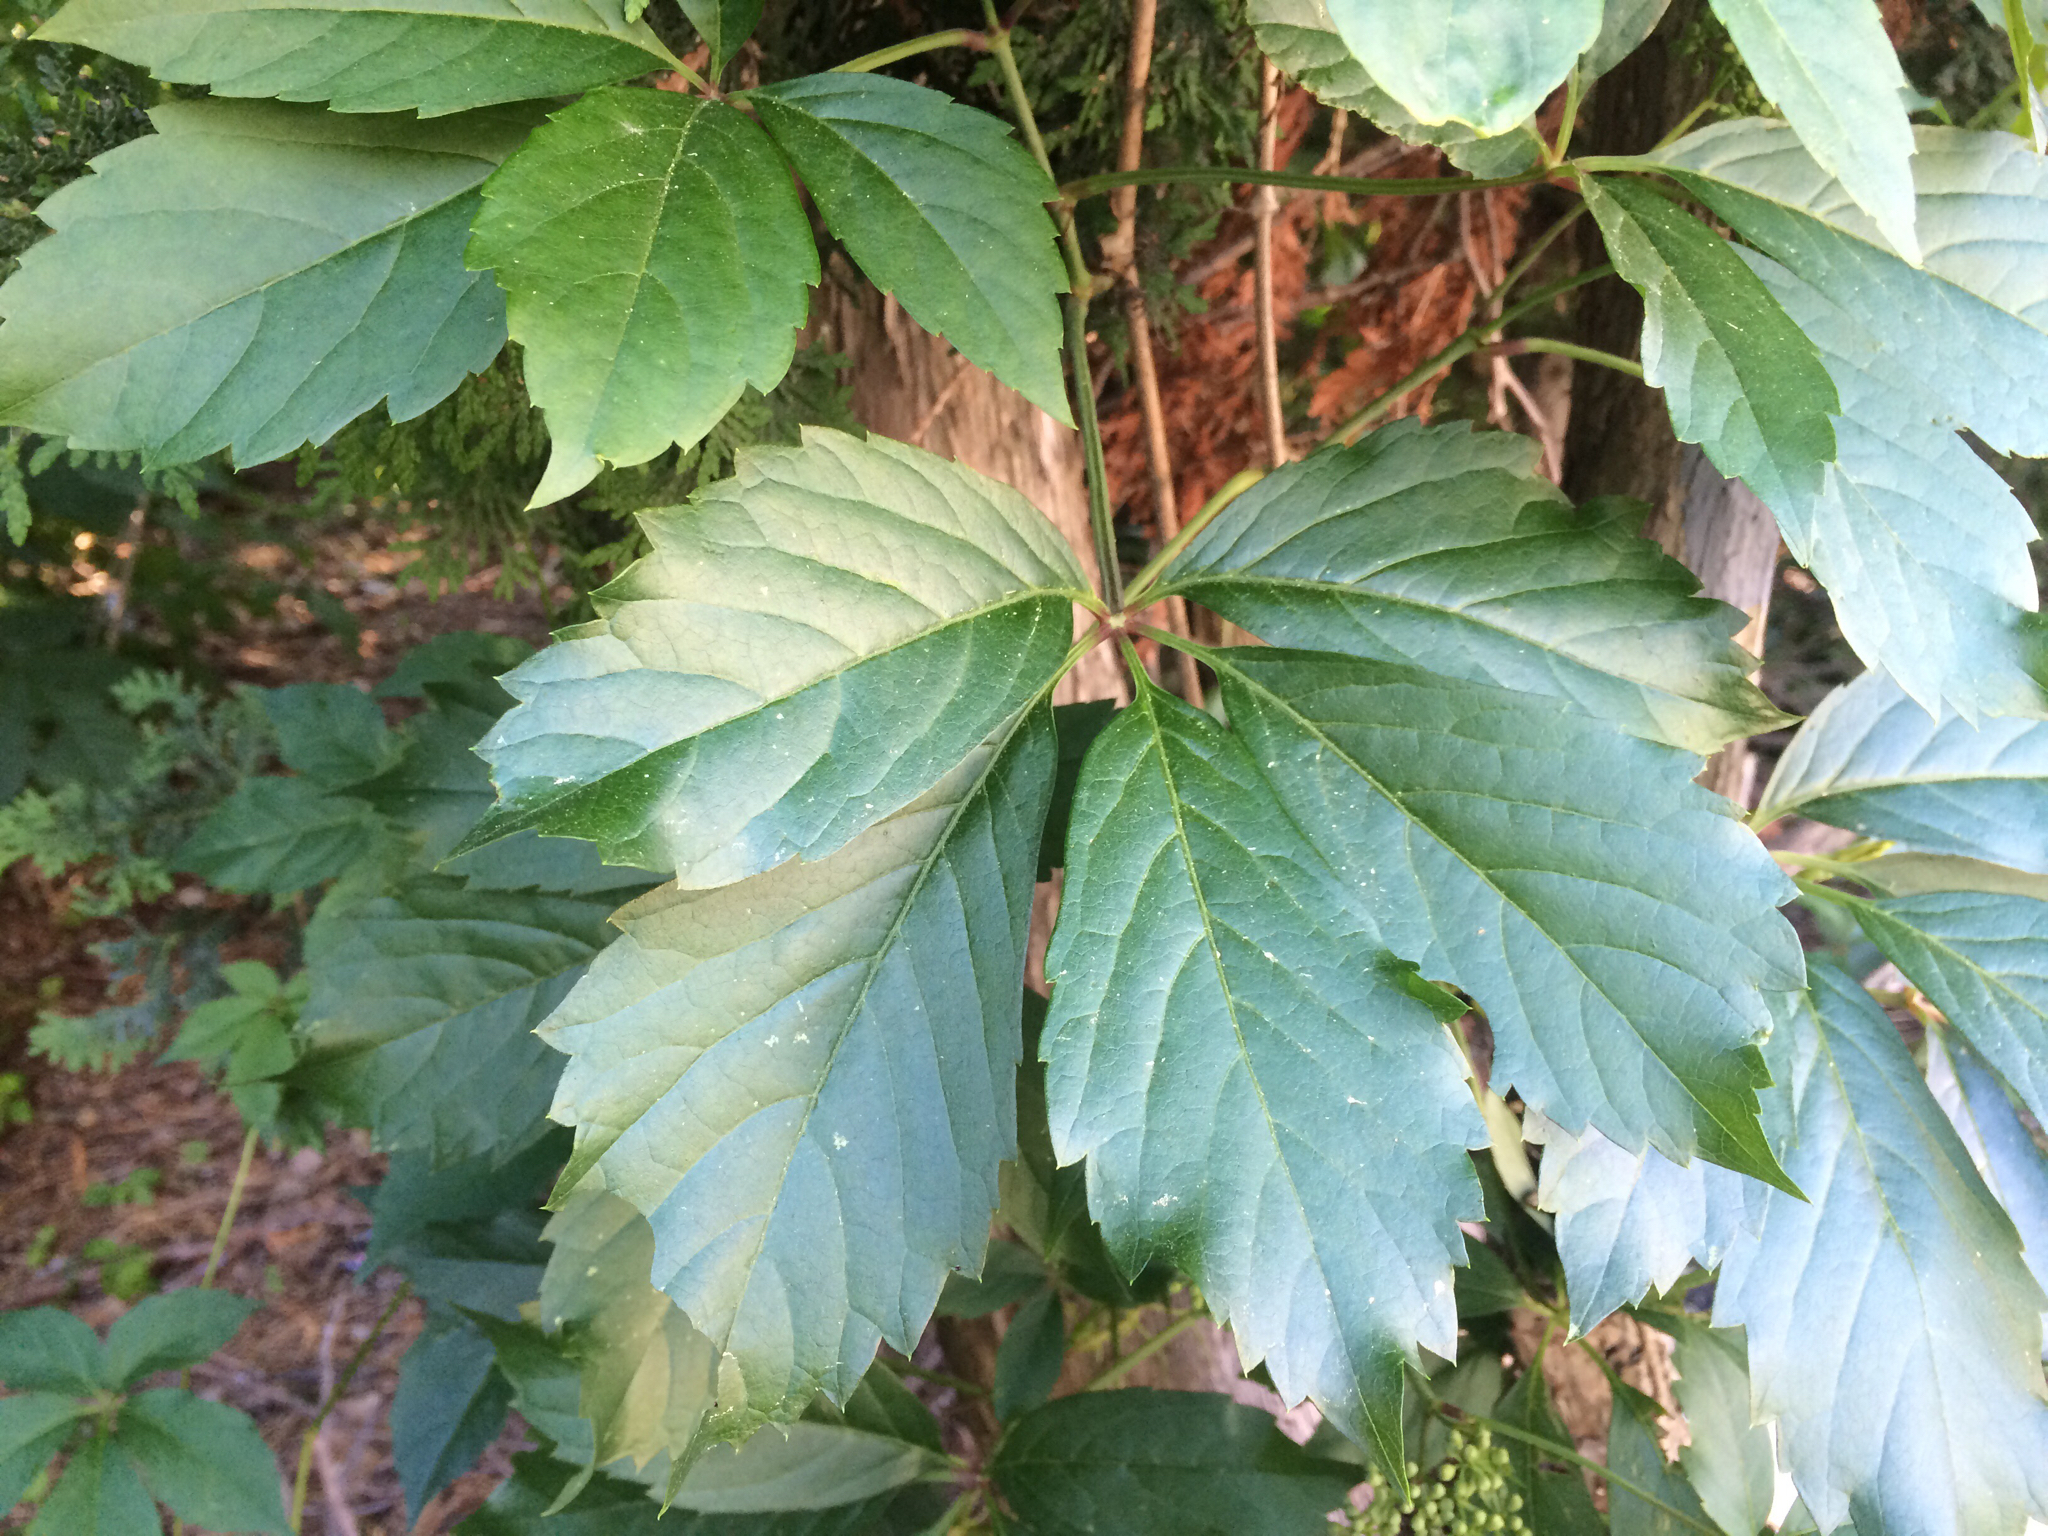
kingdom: Plantae
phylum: Tracheophyta
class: Magnoliopsida
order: Vitales
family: Vitaceae
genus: Parthenocissus
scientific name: Parthenocissus quinquefolia
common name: Virginia-creeper
